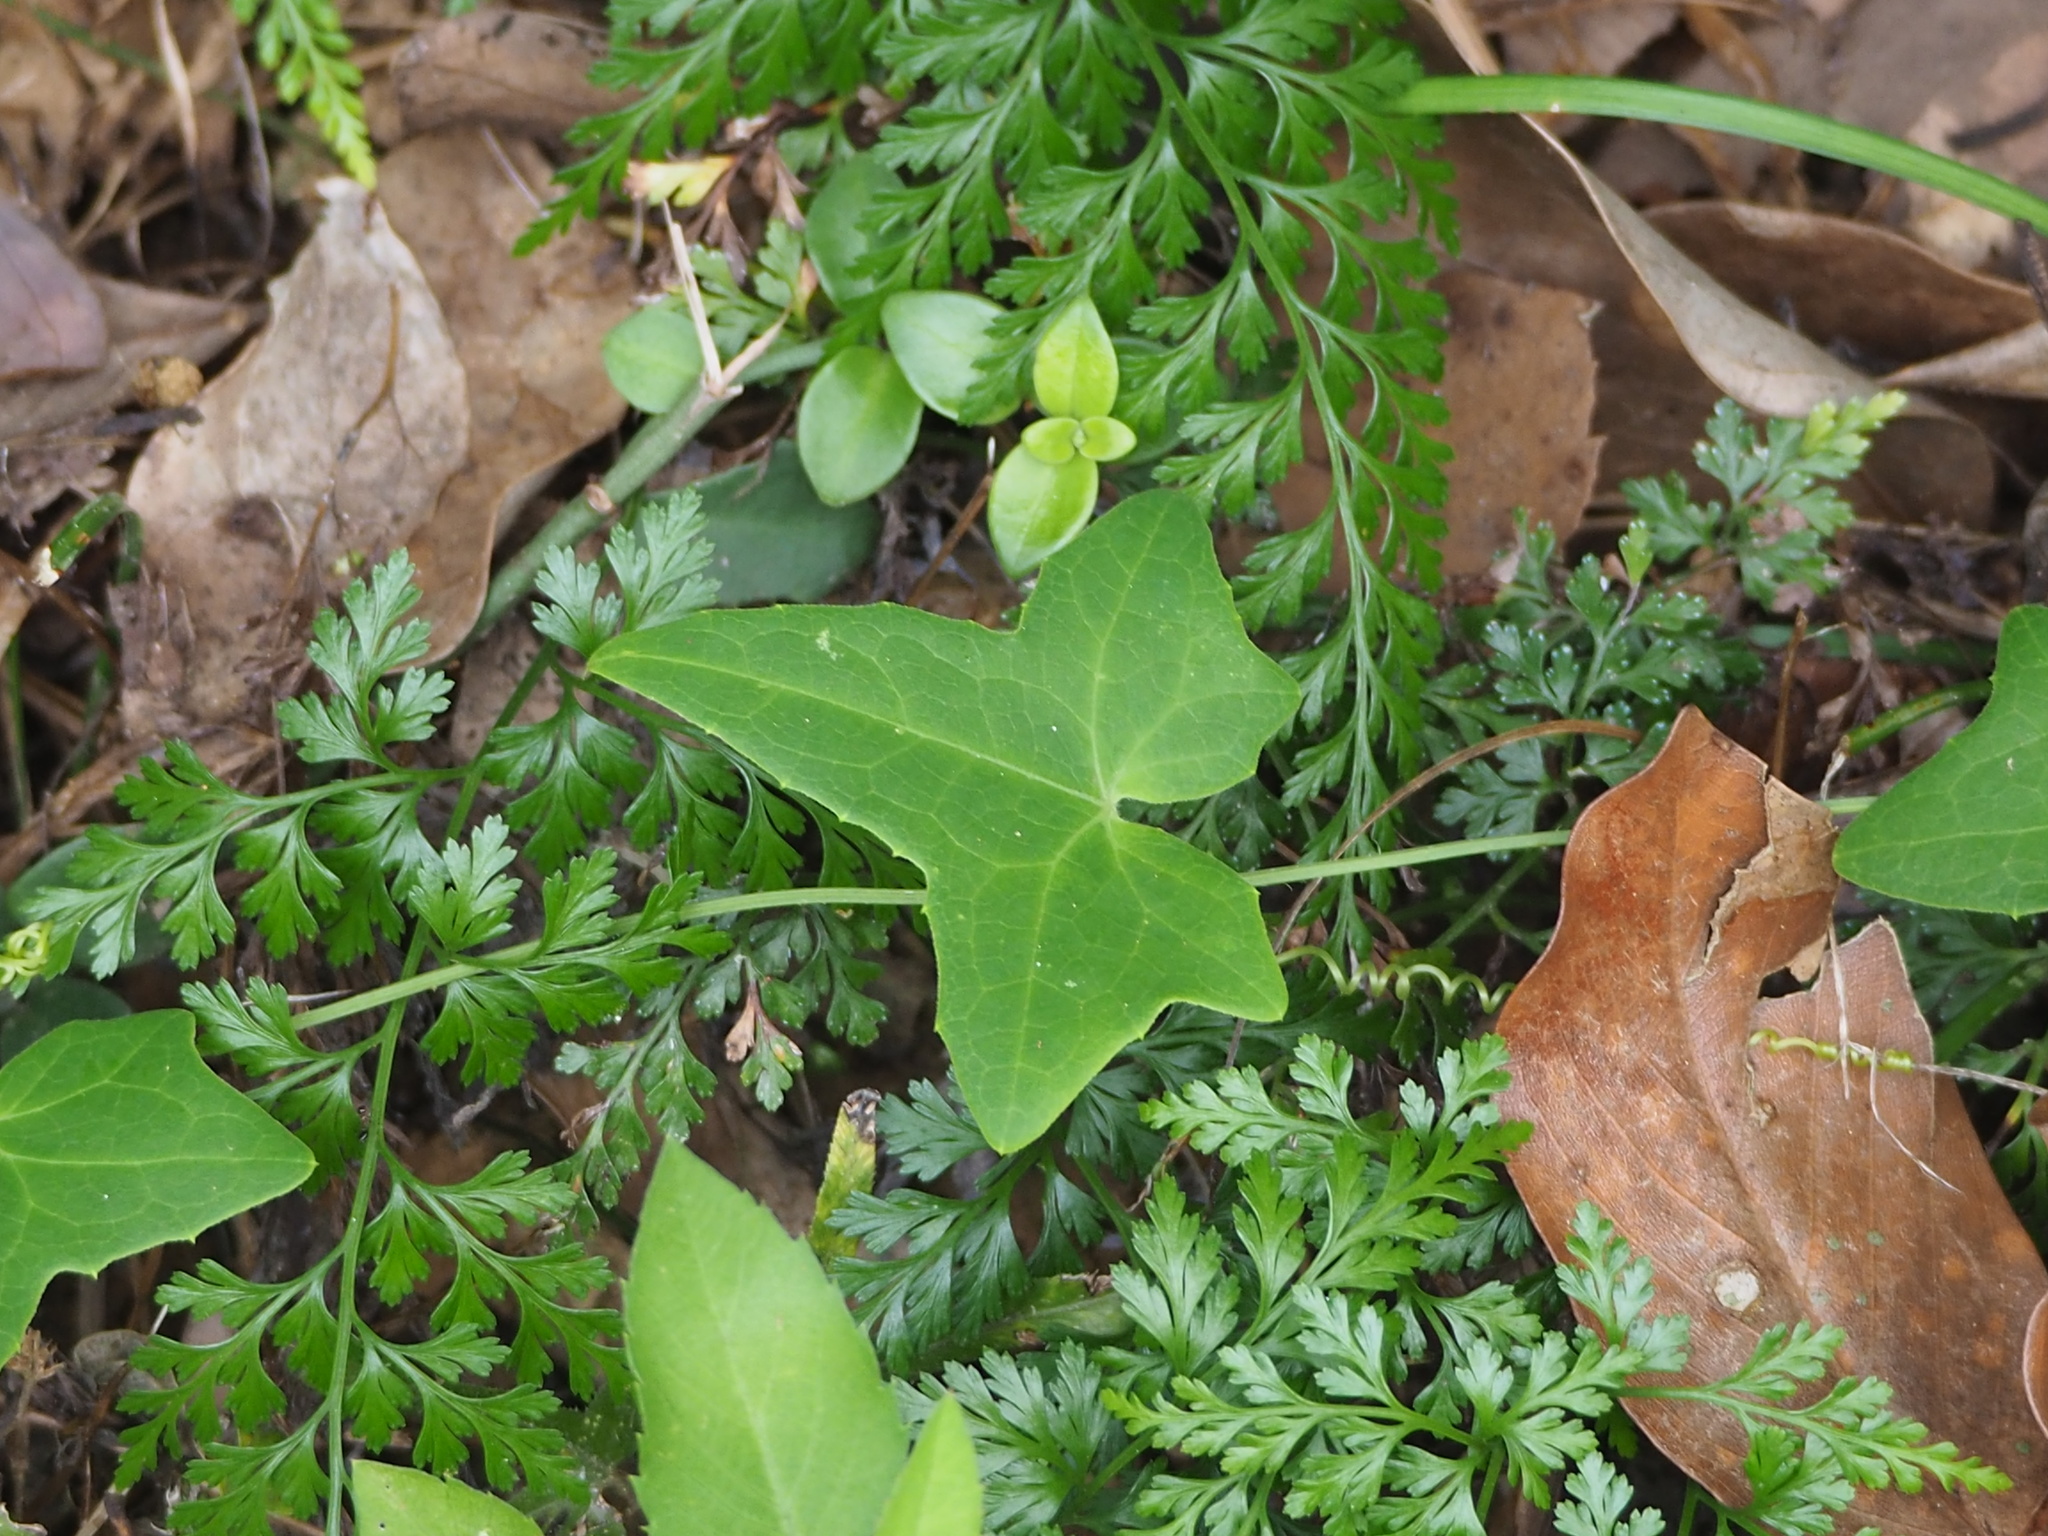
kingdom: Plantae
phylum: Tracheophyta
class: Magnoliopsida
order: Cucurbitales
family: Cucurbitaceae
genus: Solena
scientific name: Solena amplexicaulis
